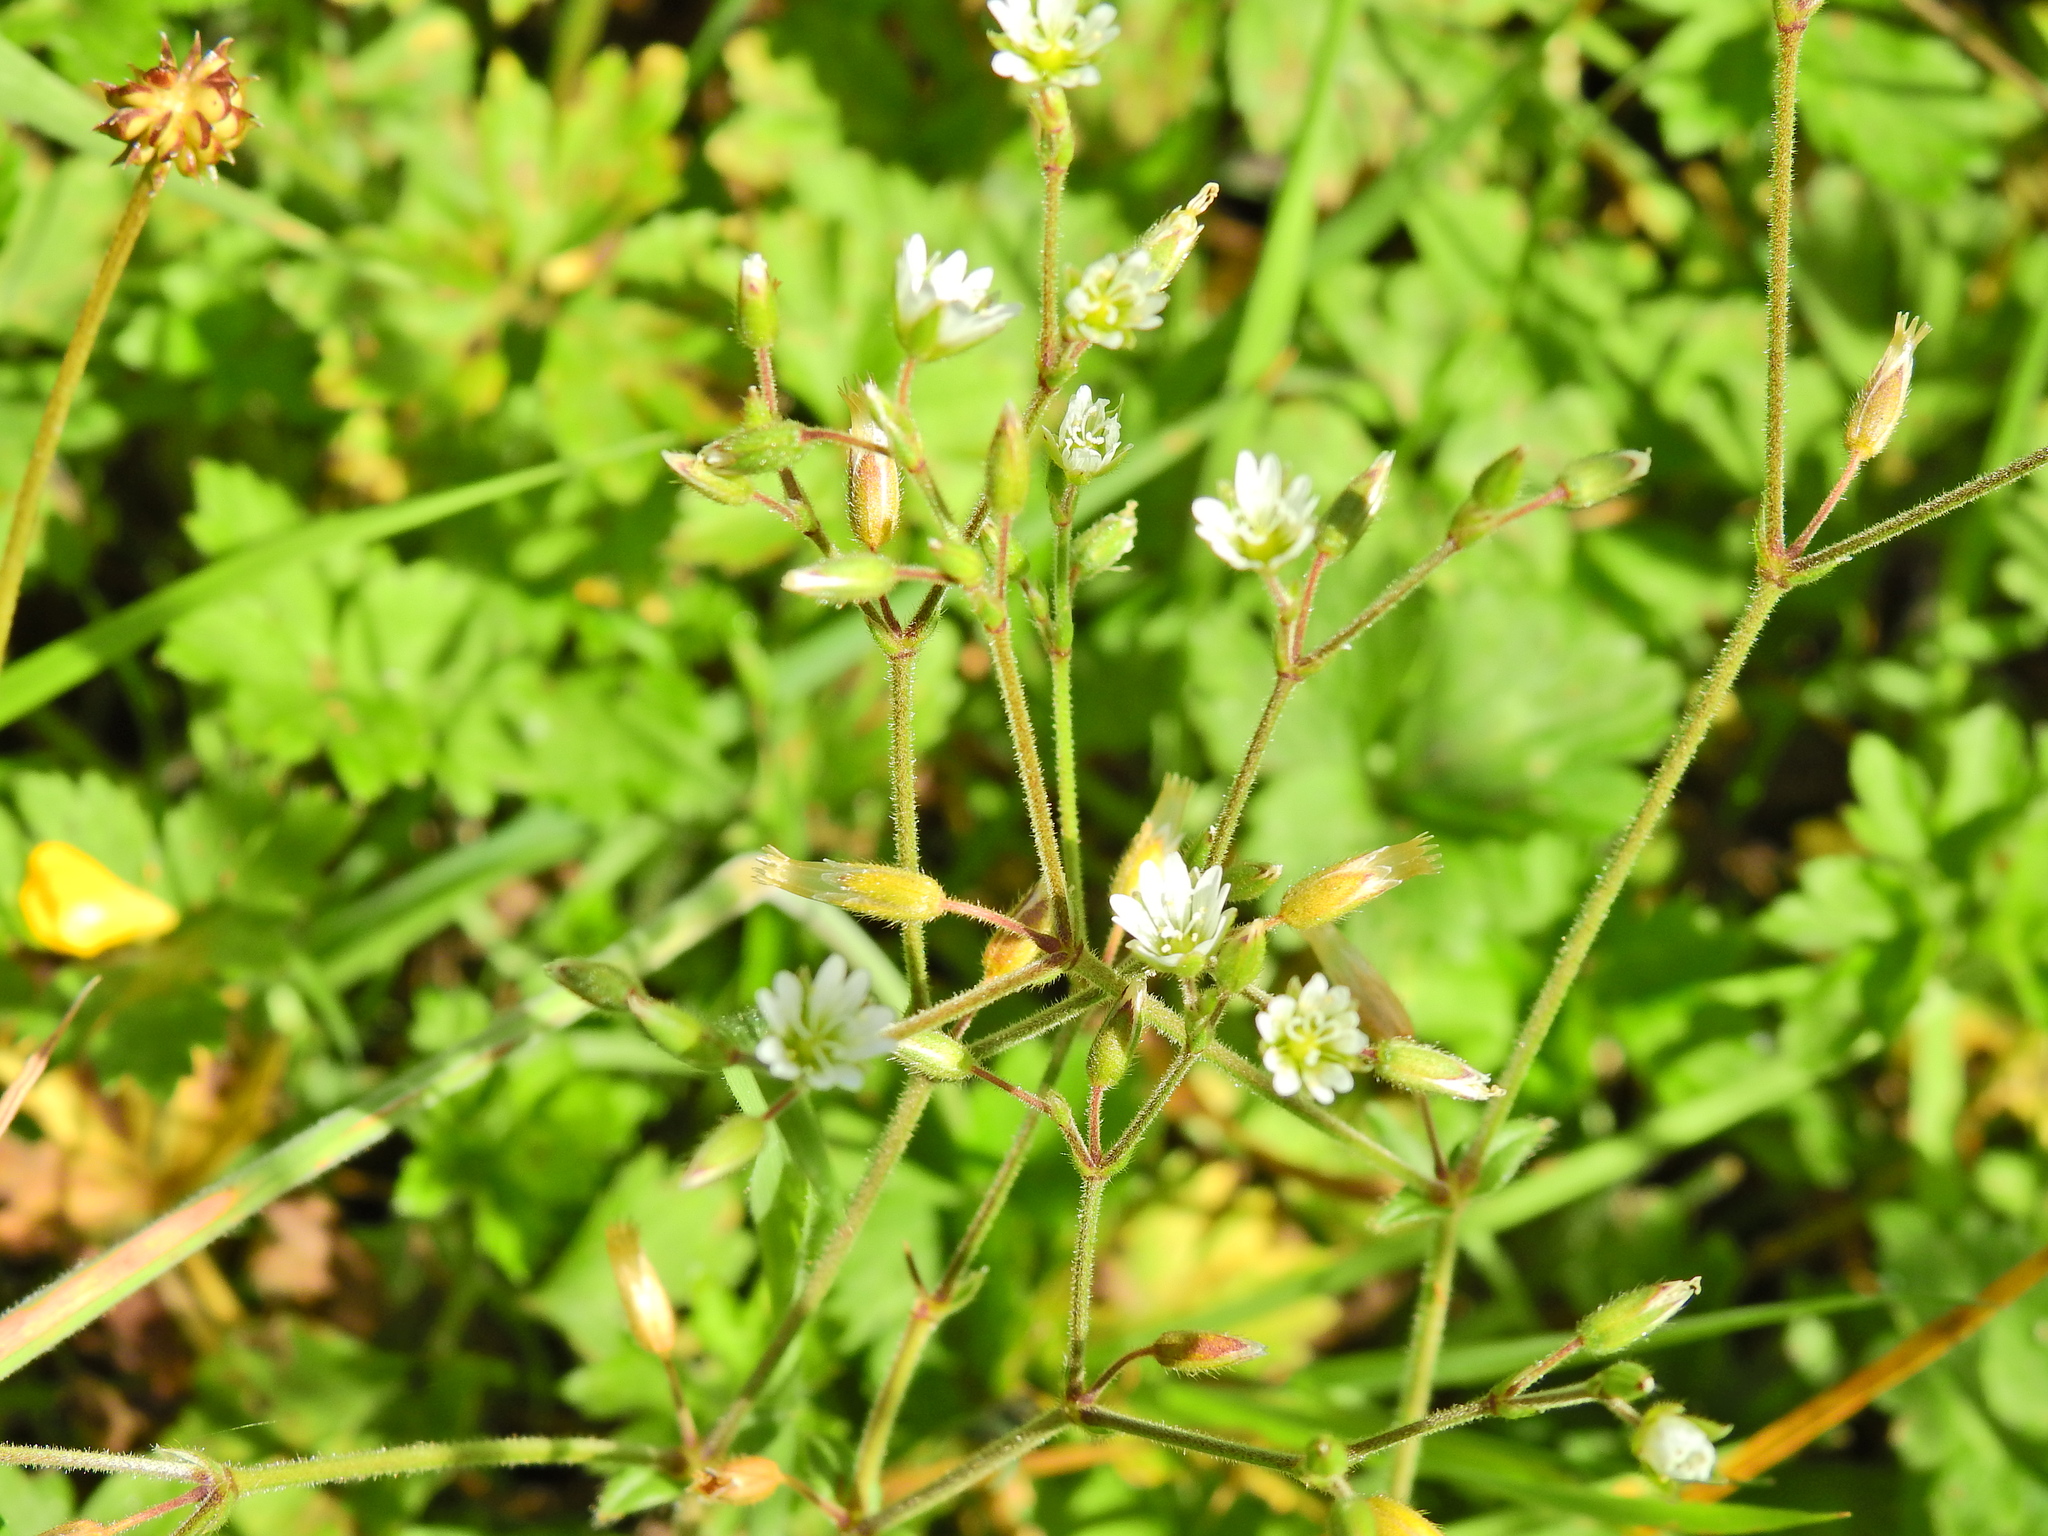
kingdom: Plantae
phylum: Tracheophyta
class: Magnoliopsida
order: Caryophyllales
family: Caryophyllaceae
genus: Cerastium
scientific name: Cerastium fontanum
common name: Common mouse-ear
